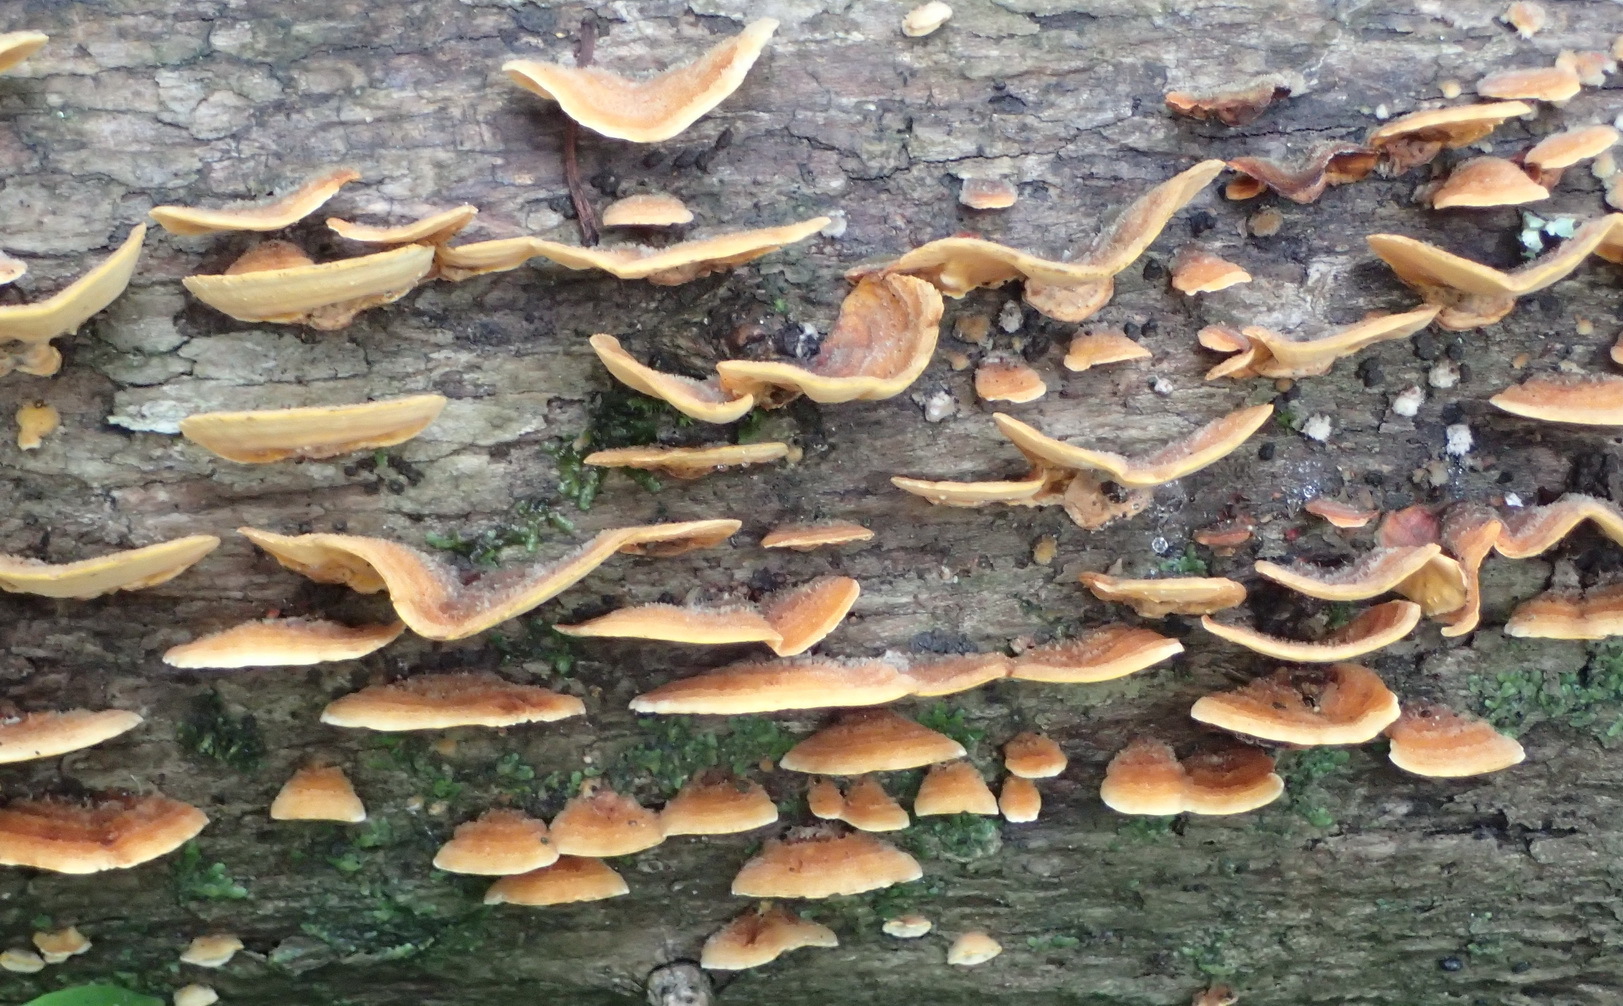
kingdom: Fungi
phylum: Basidiomycota
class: Agaricomycetes
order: Russulales
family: Stereaceae
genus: Stereum
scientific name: Stereum versicolor
